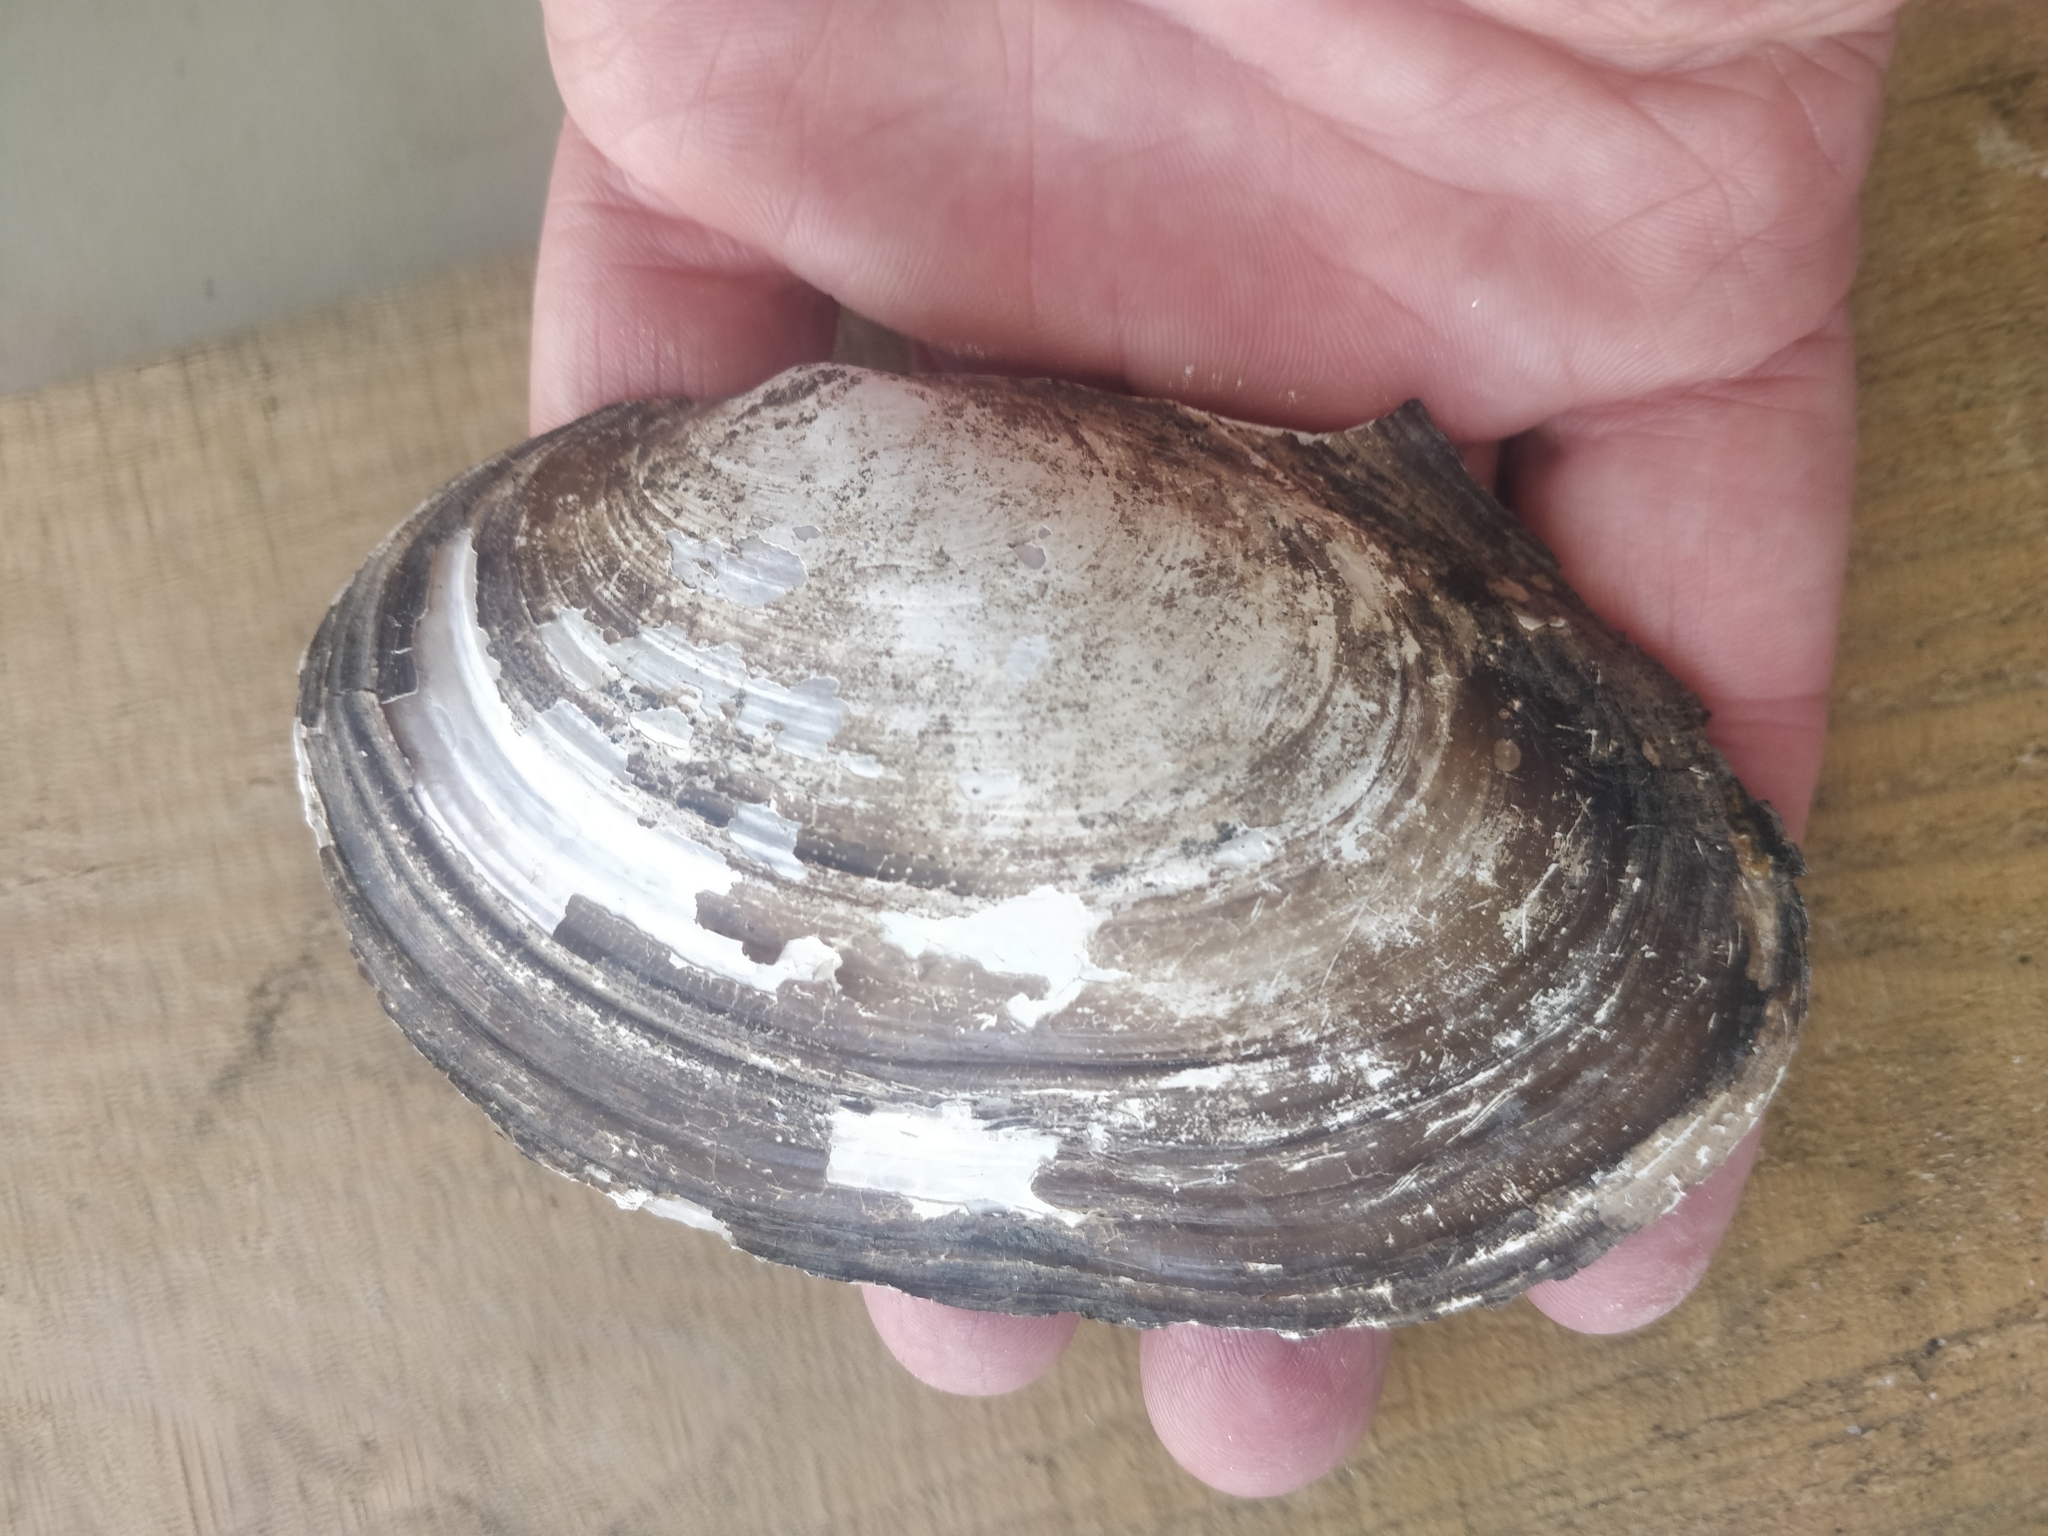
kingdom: Animalia
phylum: Mollusca
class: Bivalvia
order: Unionida
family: Unionidae
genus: Potamilus
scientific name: Potamilus ohiensis
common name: Pink papershell
